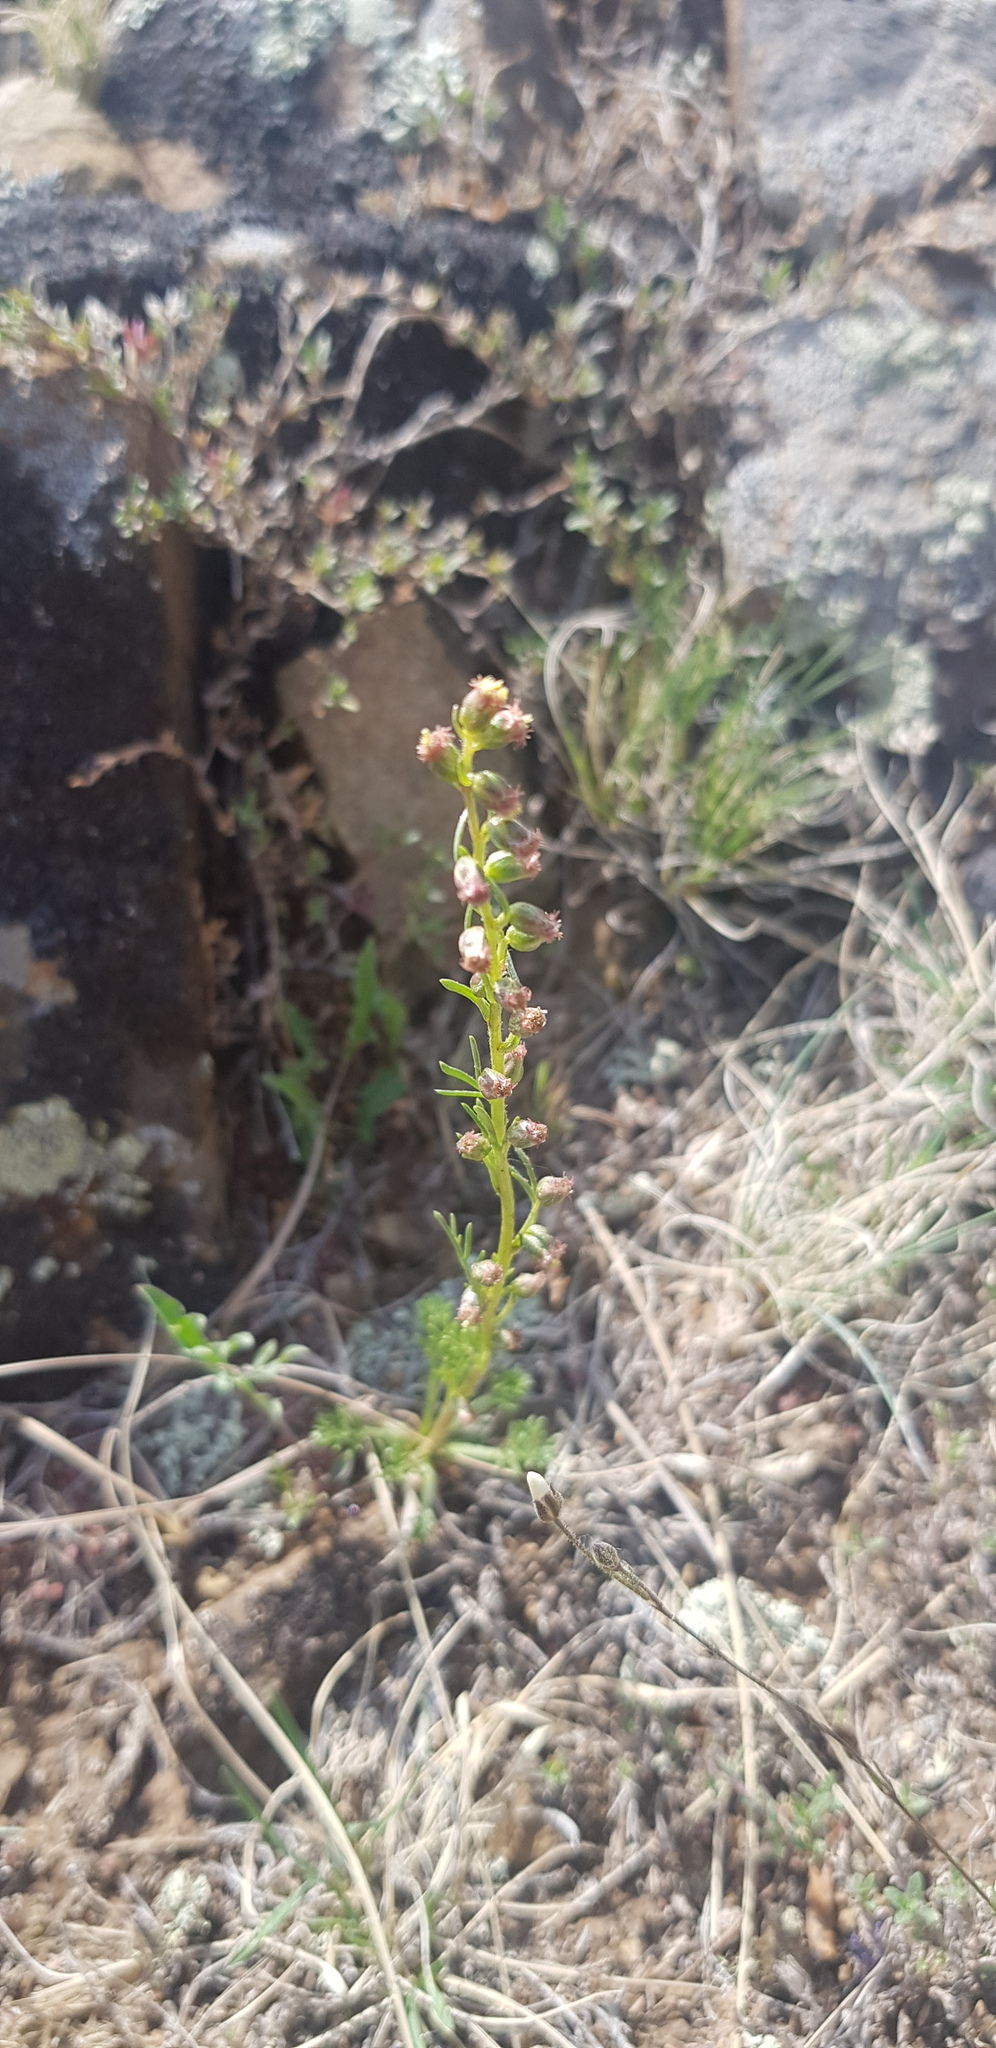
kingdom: Plantae
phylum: Tracheophyta
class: Magnoliopsida
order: Asterales
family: Asteraceae
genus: Artemisia
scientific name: Artemisia tanacetifolia
